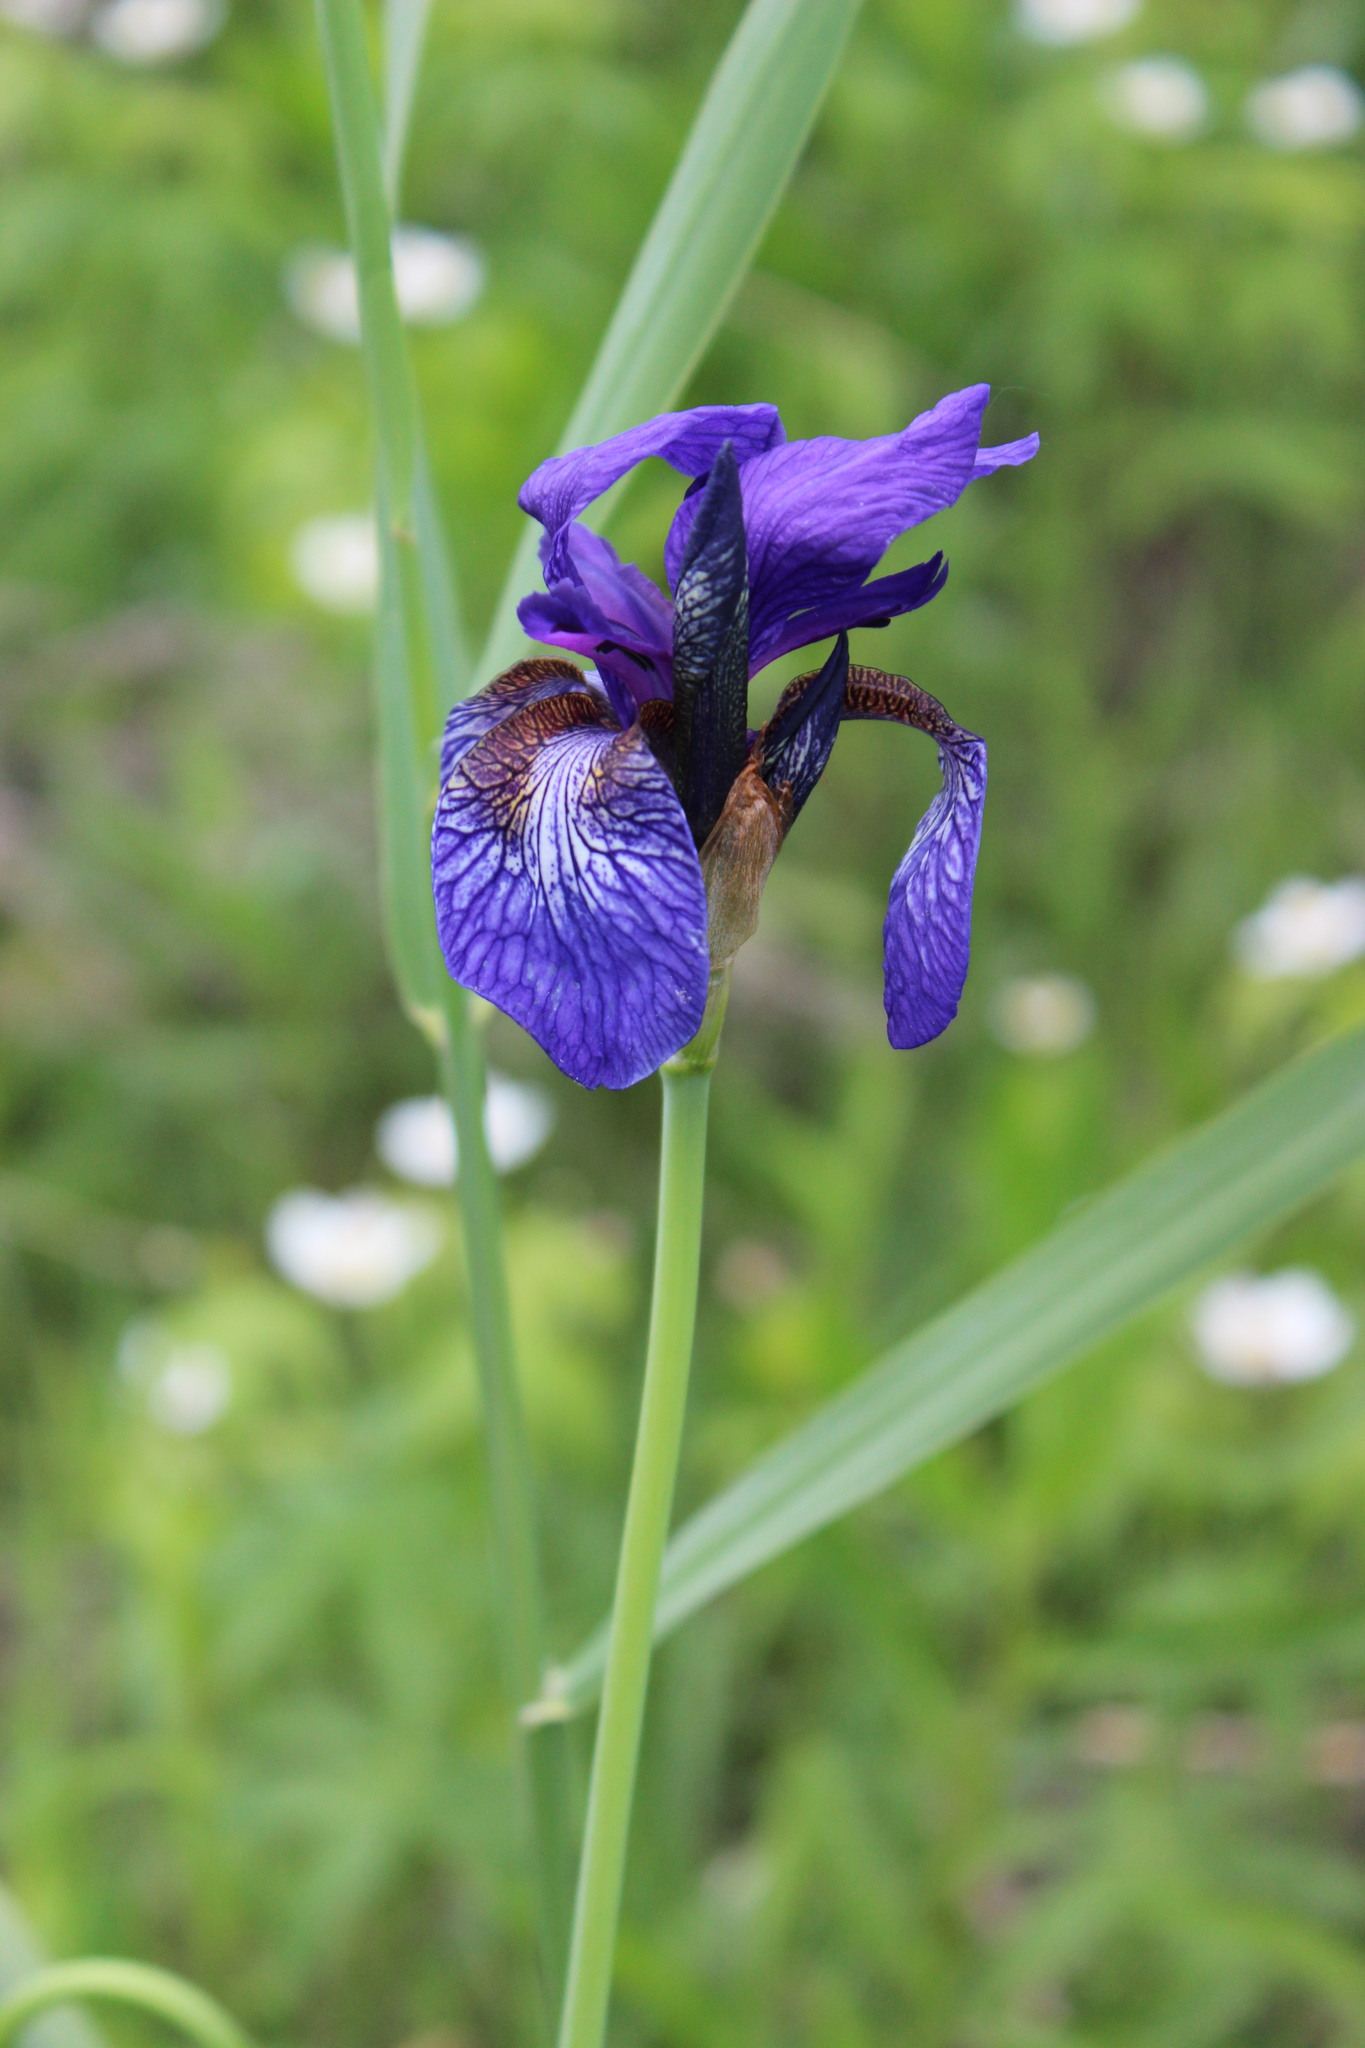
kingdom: Plantae
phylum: Tracheophyta
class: Liliopsida
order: Asparagales
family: Iridaceae
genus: Iris
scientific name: Iris sibirica
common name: Siberian iris
